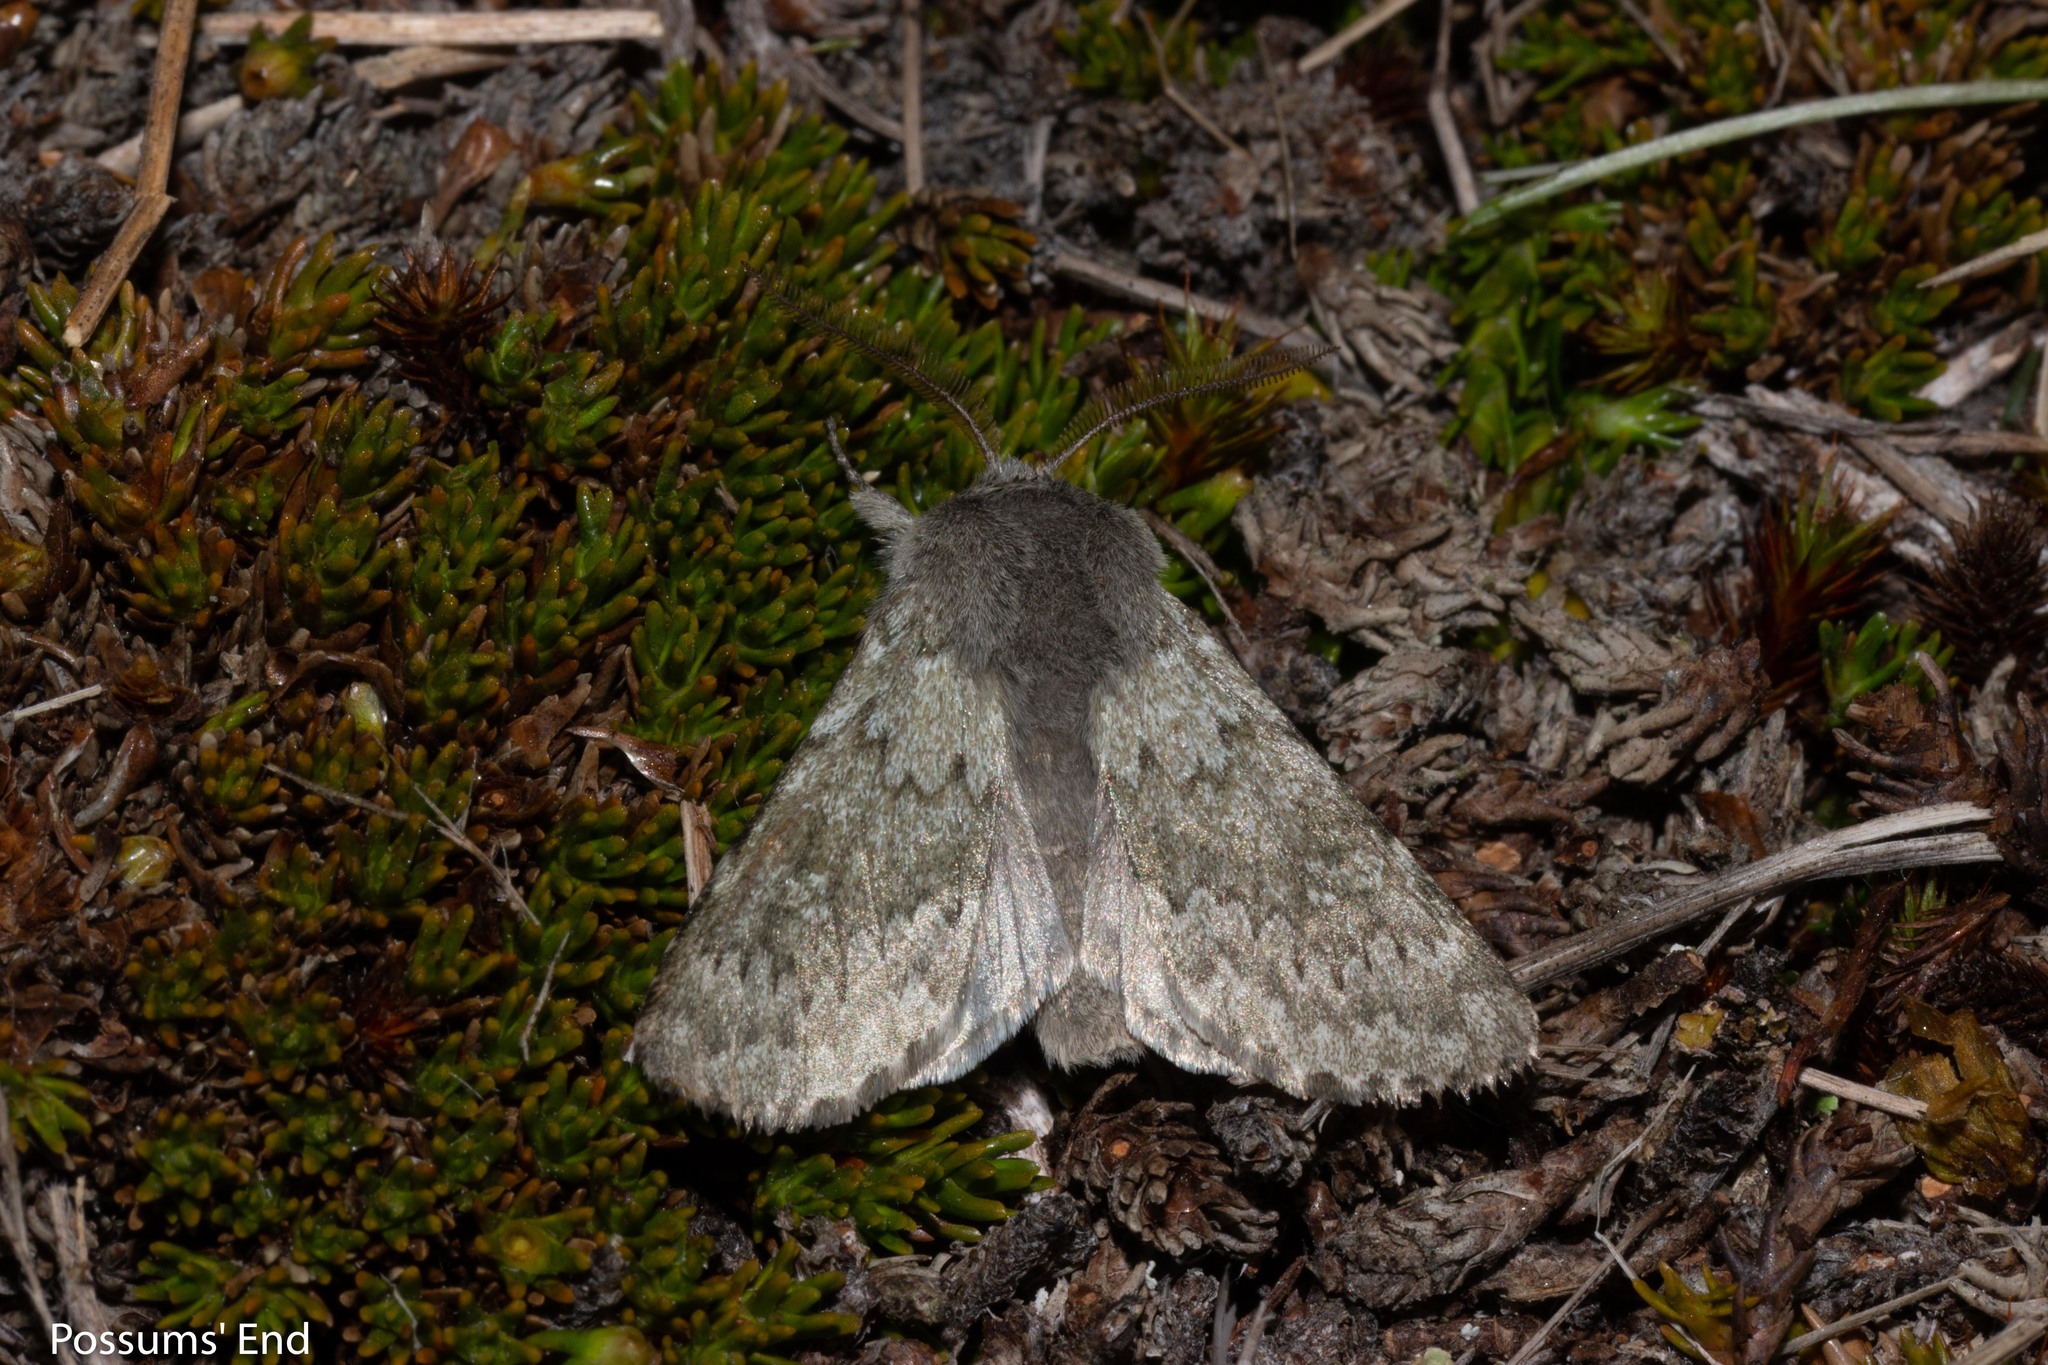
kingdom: Animalia
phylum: Arthropoda
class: Insecta
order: Lepidoptera
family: Noctuidae
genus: Ichneutica
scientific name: Ichneutica cana
